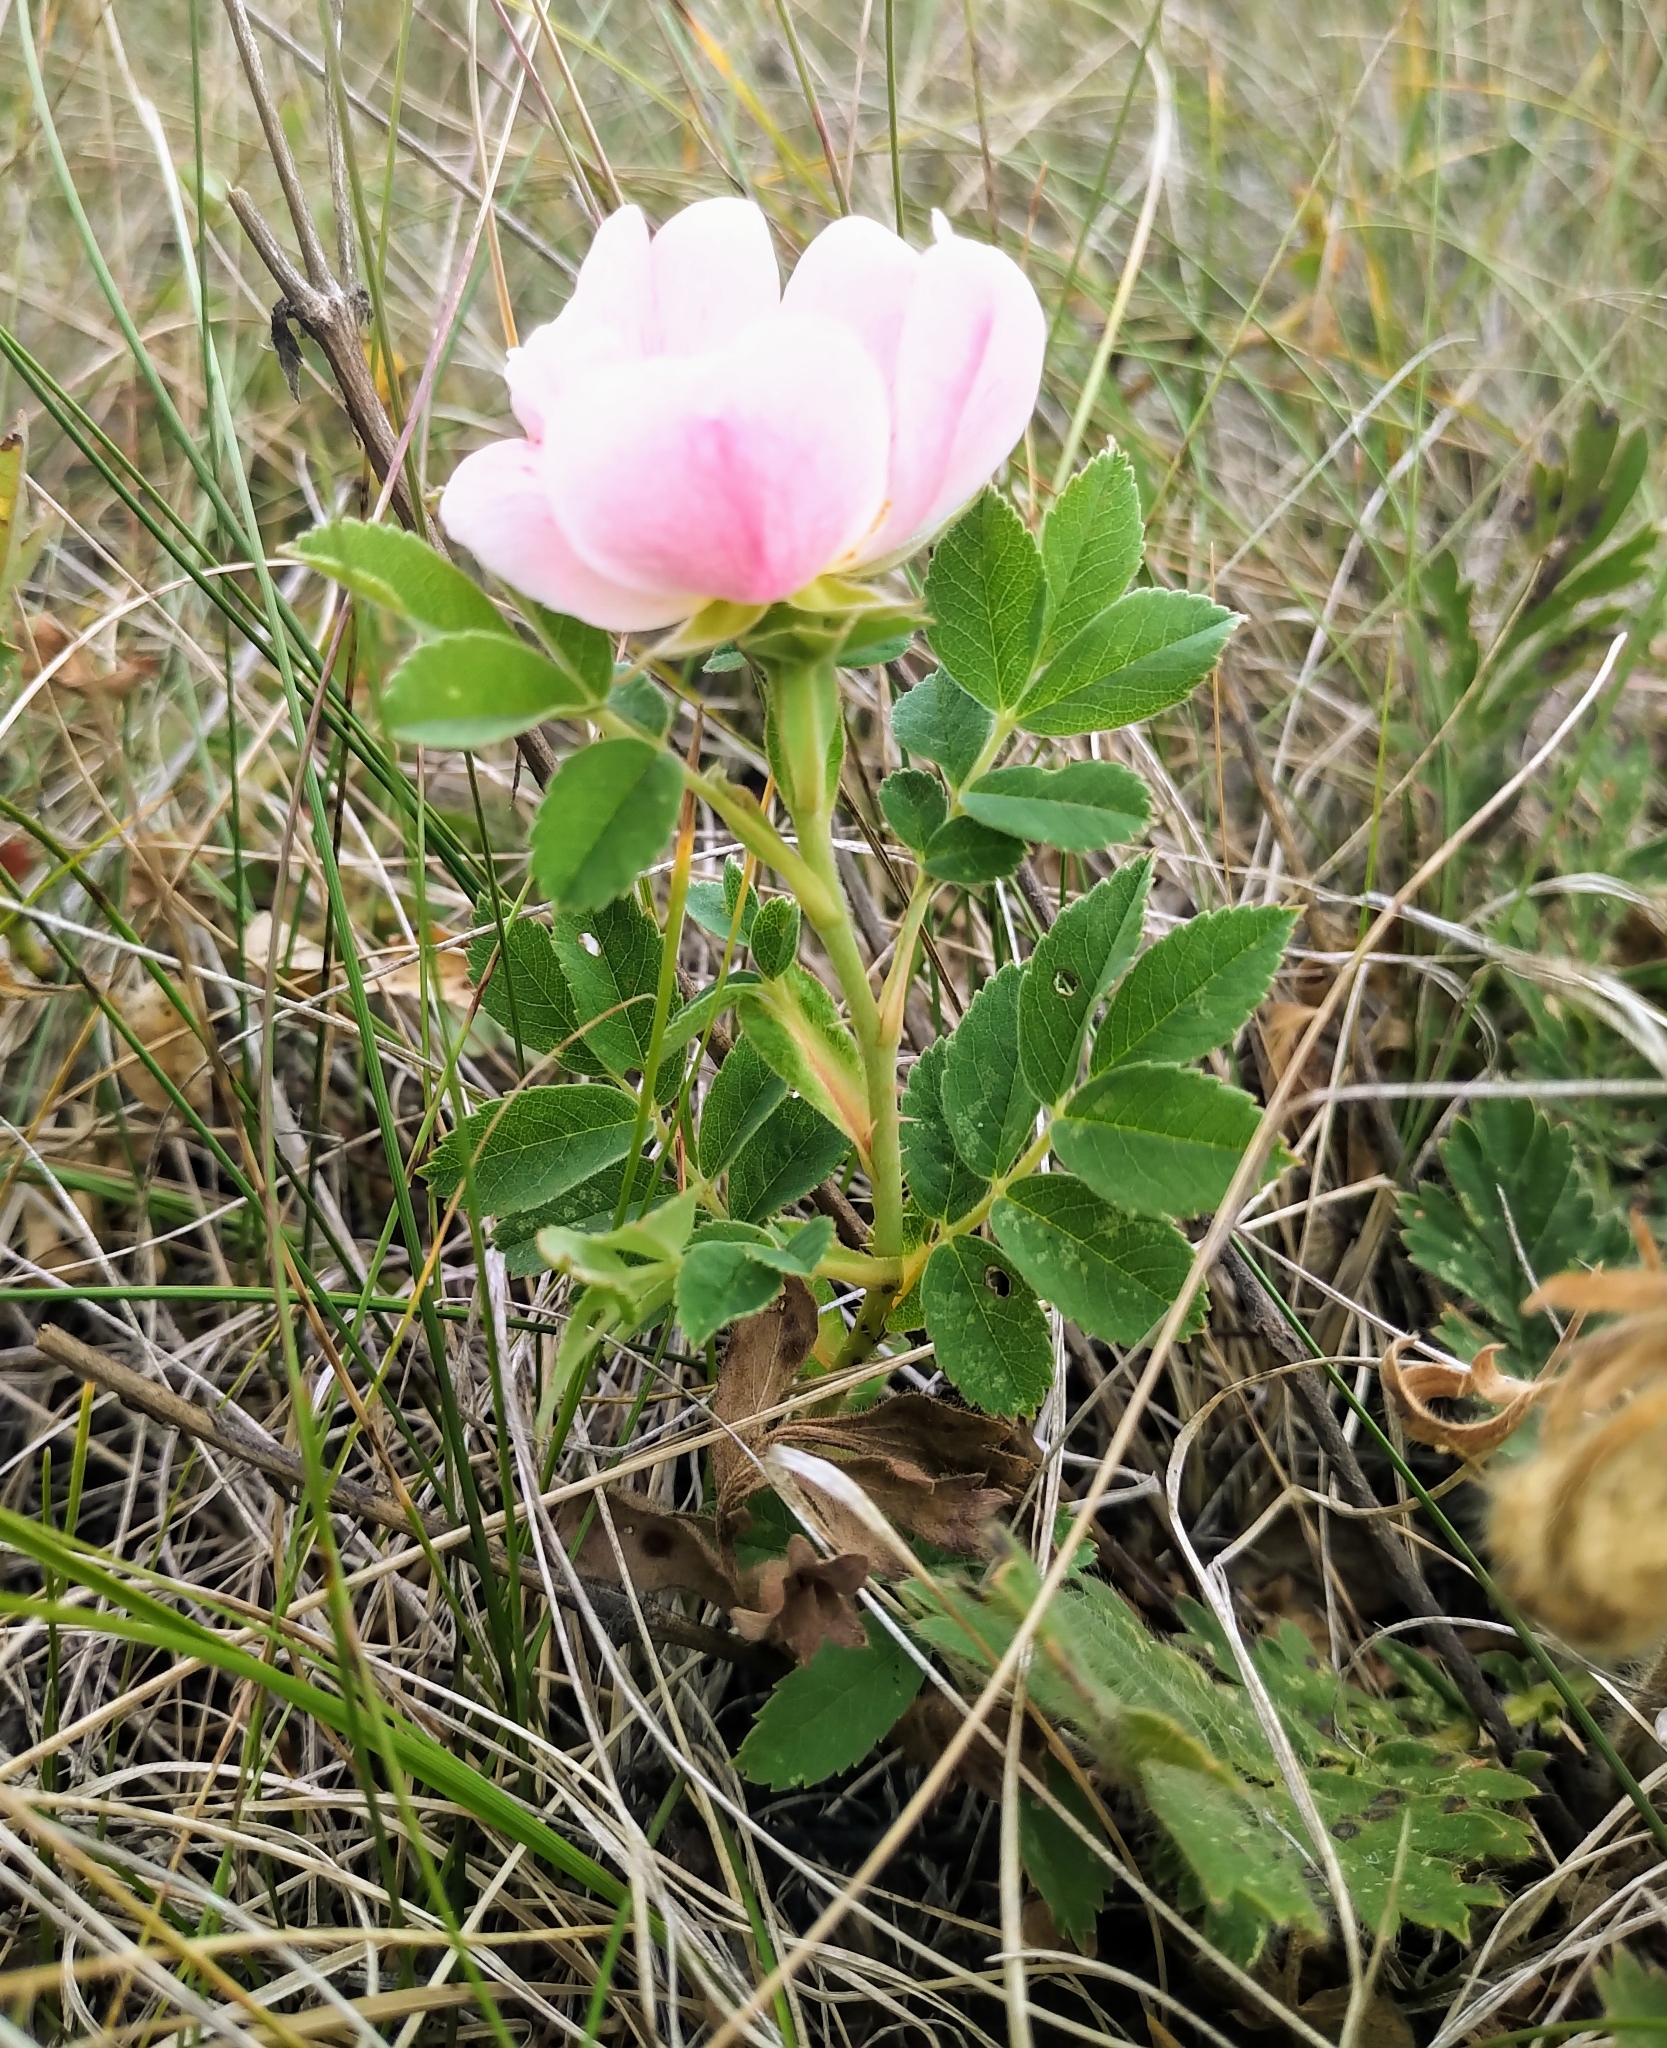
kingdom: Plantae
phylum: Tracheophyta
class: Magnoliopsida
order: Rosales
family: Rosaceae
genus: Rosa
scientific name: Rosa arkansana
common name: Prairie rose
